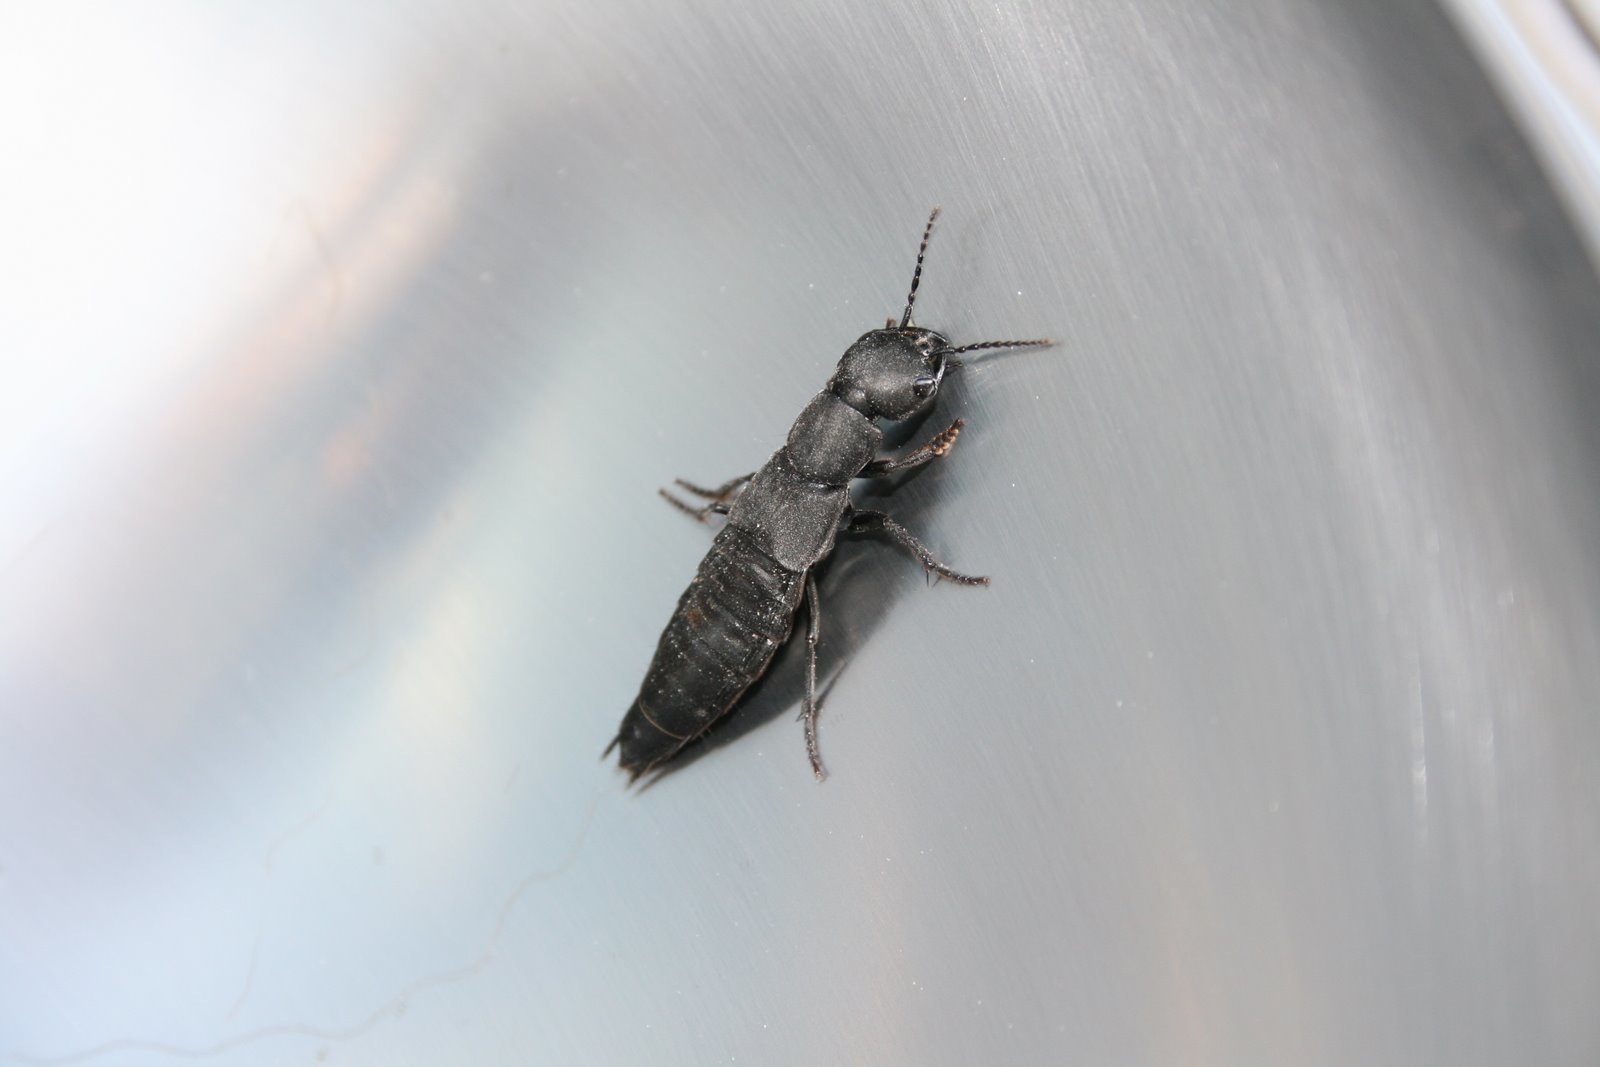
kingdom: Animalia
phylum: Arthropoda
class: Insecta
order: Coleoptera
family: Staphylinidae
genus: Ocypus
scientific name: Ocypus olens
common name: Devil's coach-horse
